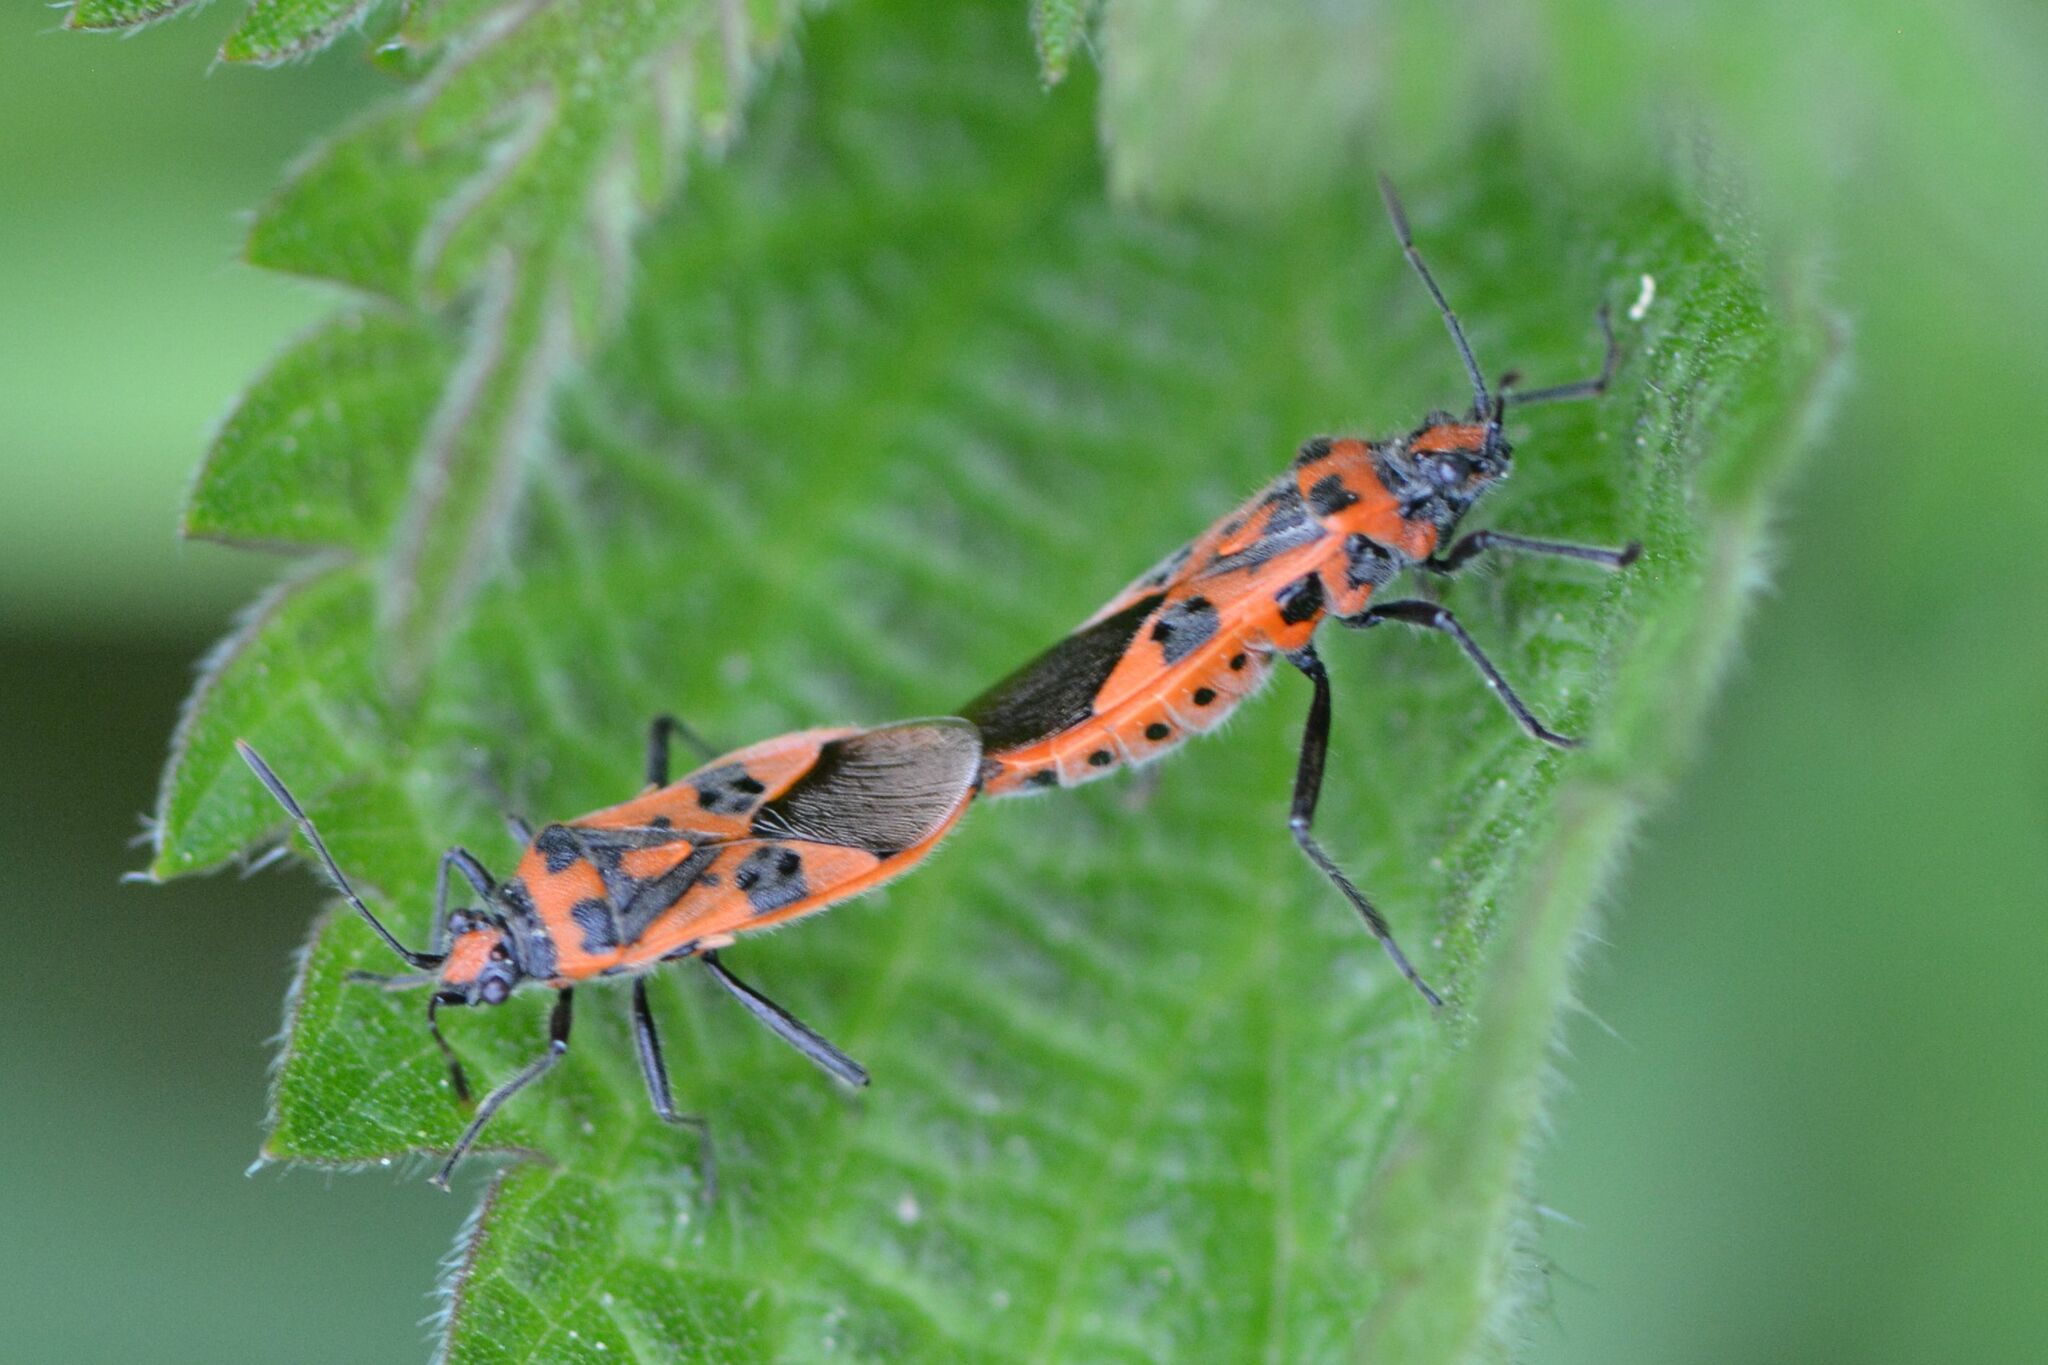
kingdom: Animalia
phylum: Arthropoda
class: Insecta
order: Hemiptera
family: Rhopalidae
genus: Corizus
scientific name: Corizus hyoscyami
